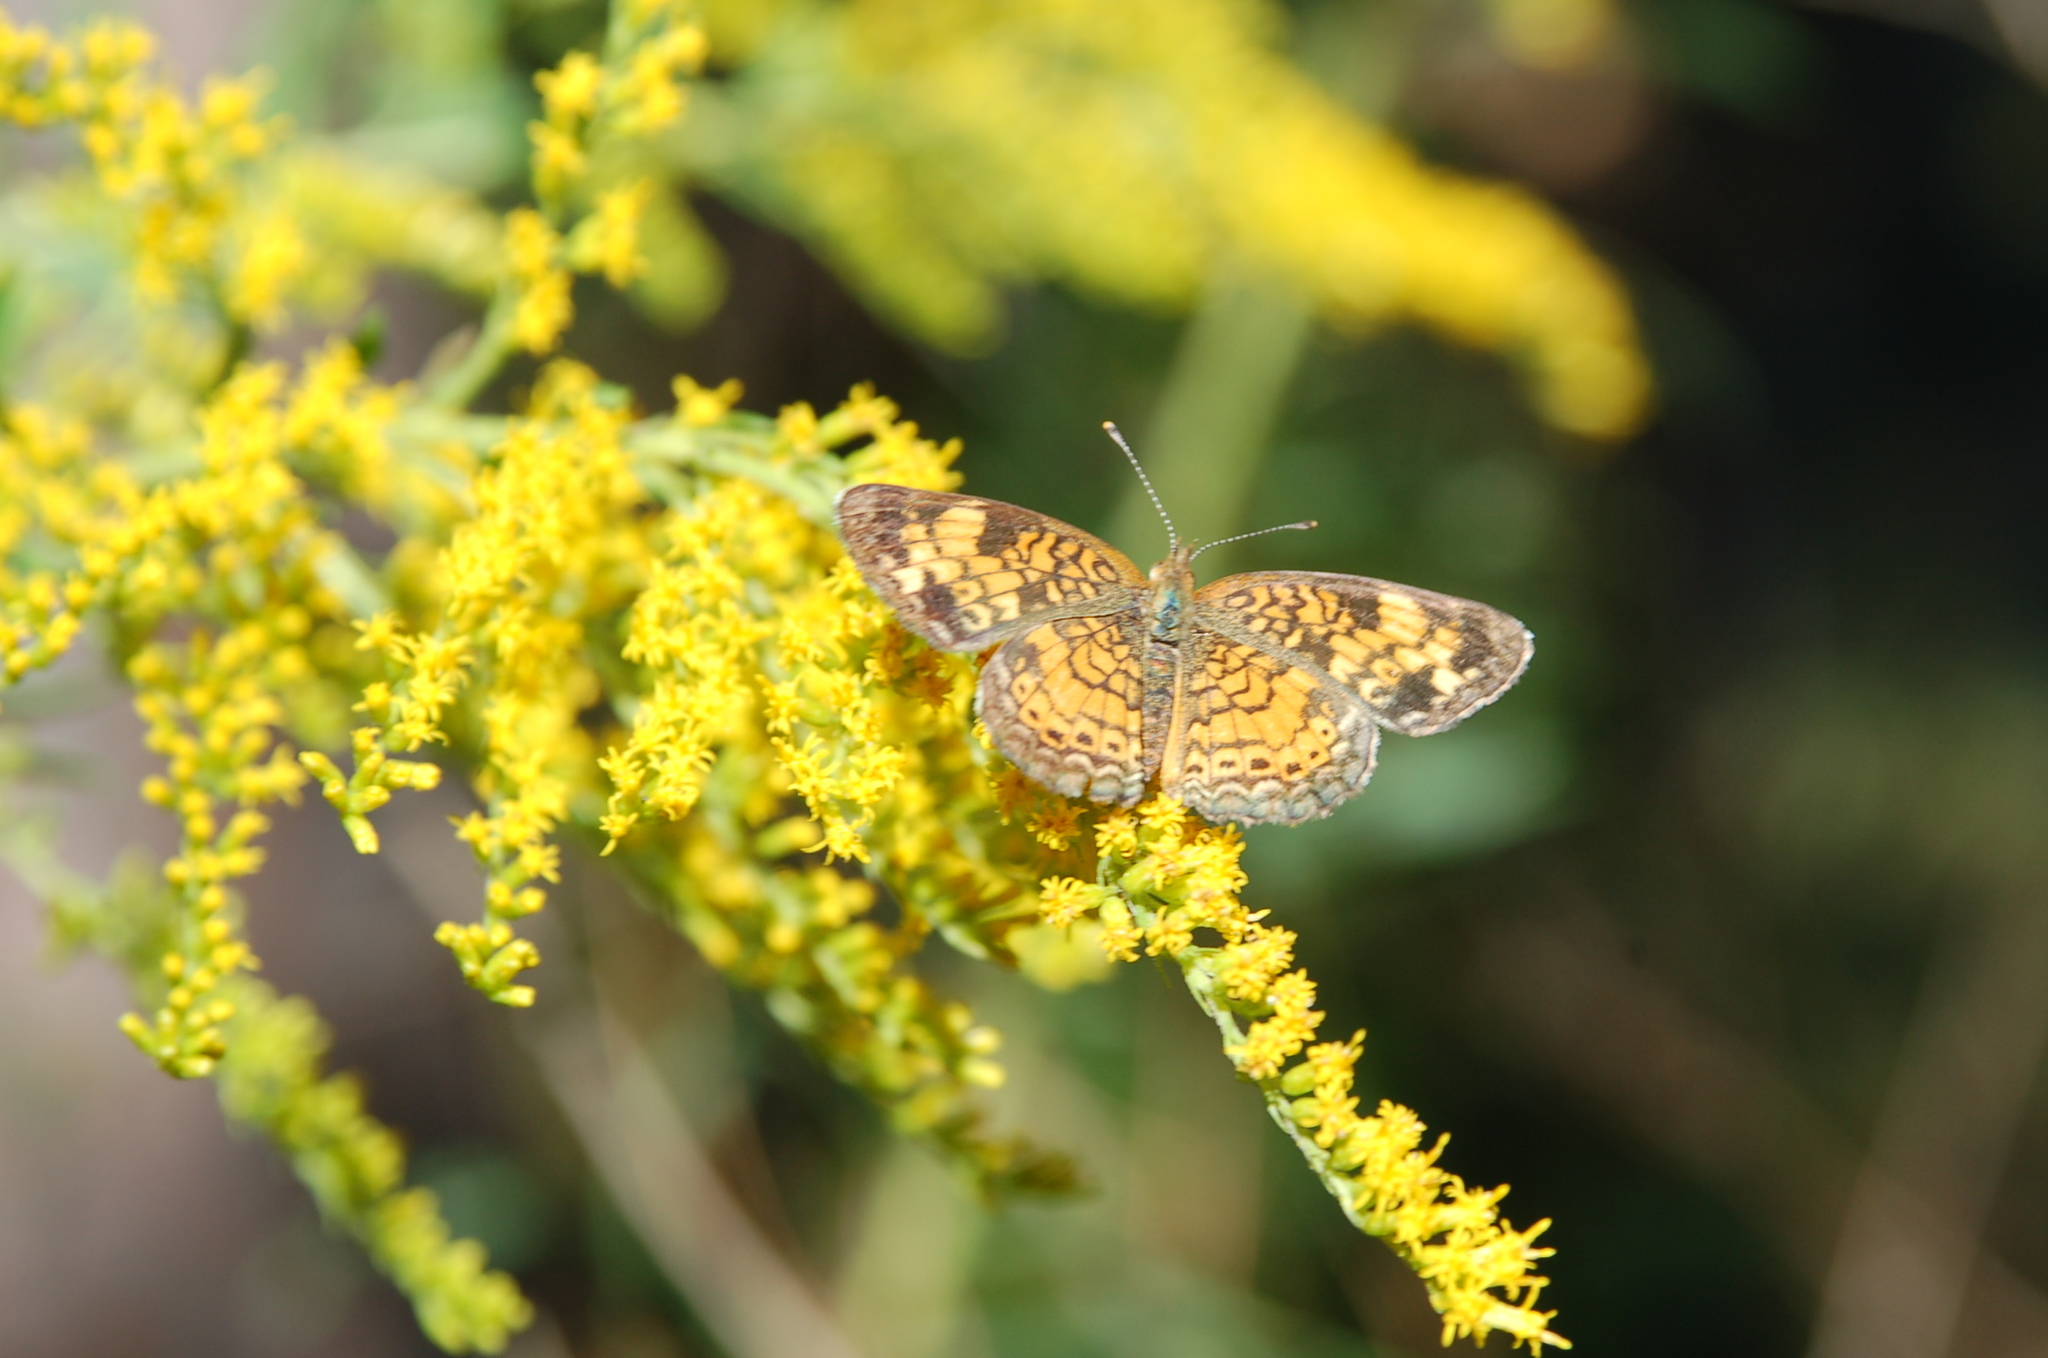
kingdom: Animalia
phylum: Arthropoda
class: Insecta
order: Lepidoptera
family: Nymphalidae
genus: Phyciodes
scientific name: Phyciodes tharos
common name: Pearl crescent
